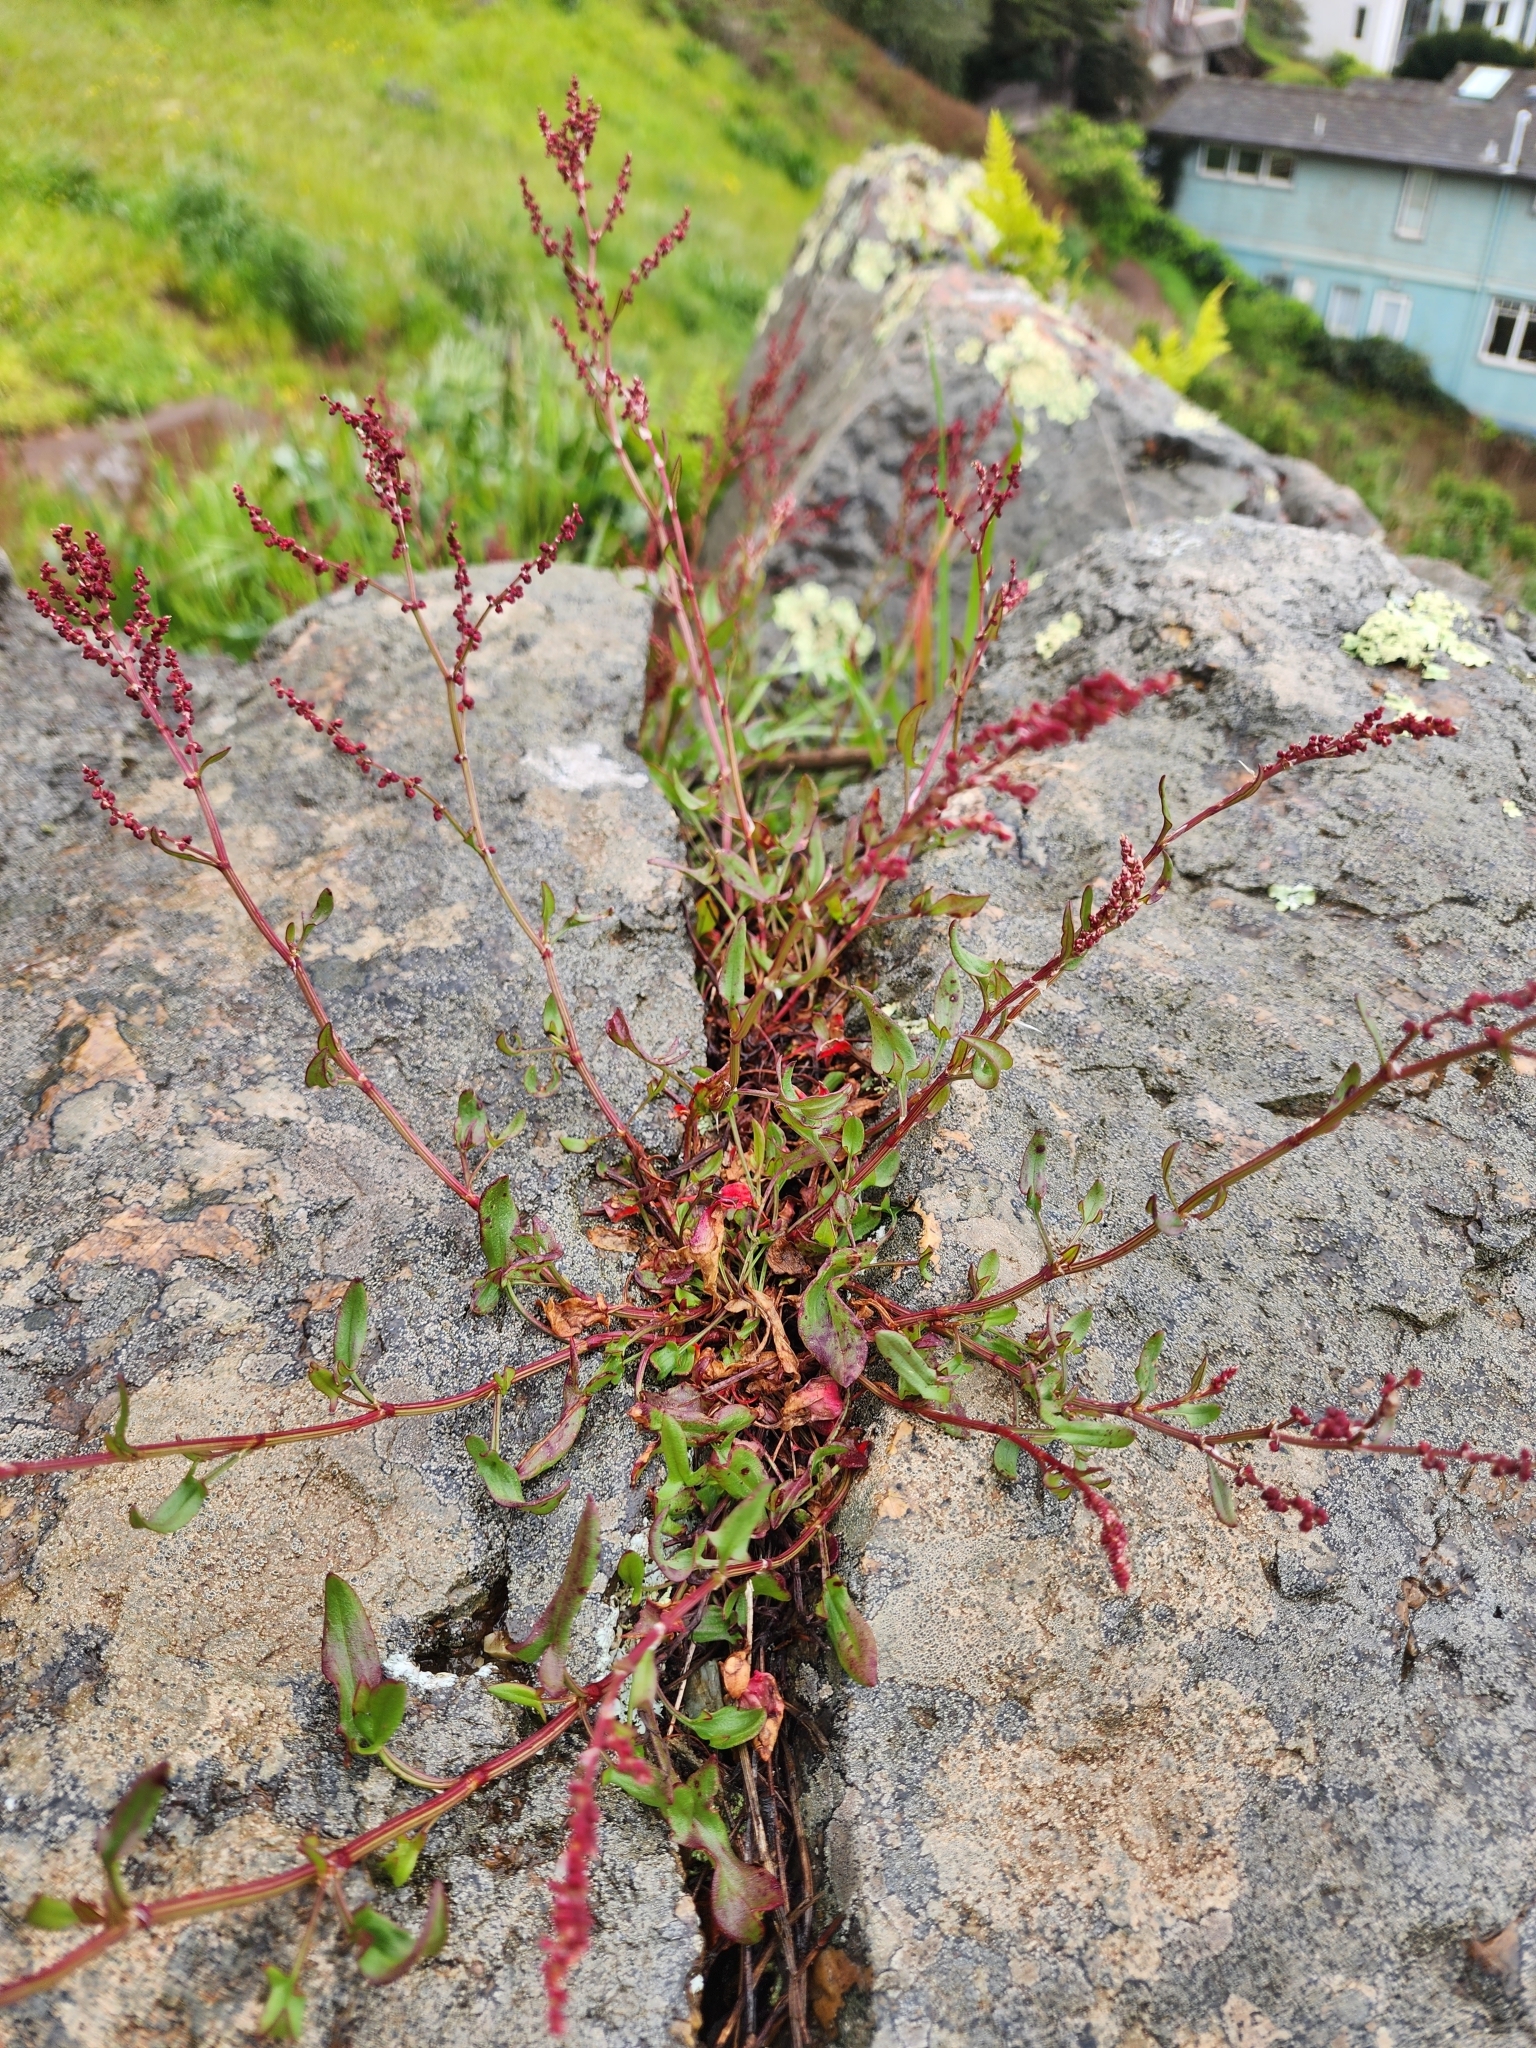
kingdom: Plantae
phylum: Tracheophyta
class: Magnoliopsida
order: Caryophyllales
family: Polygonaceae
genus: Rumex
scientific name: Rumex acetosella
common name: Common sheep sorrel
